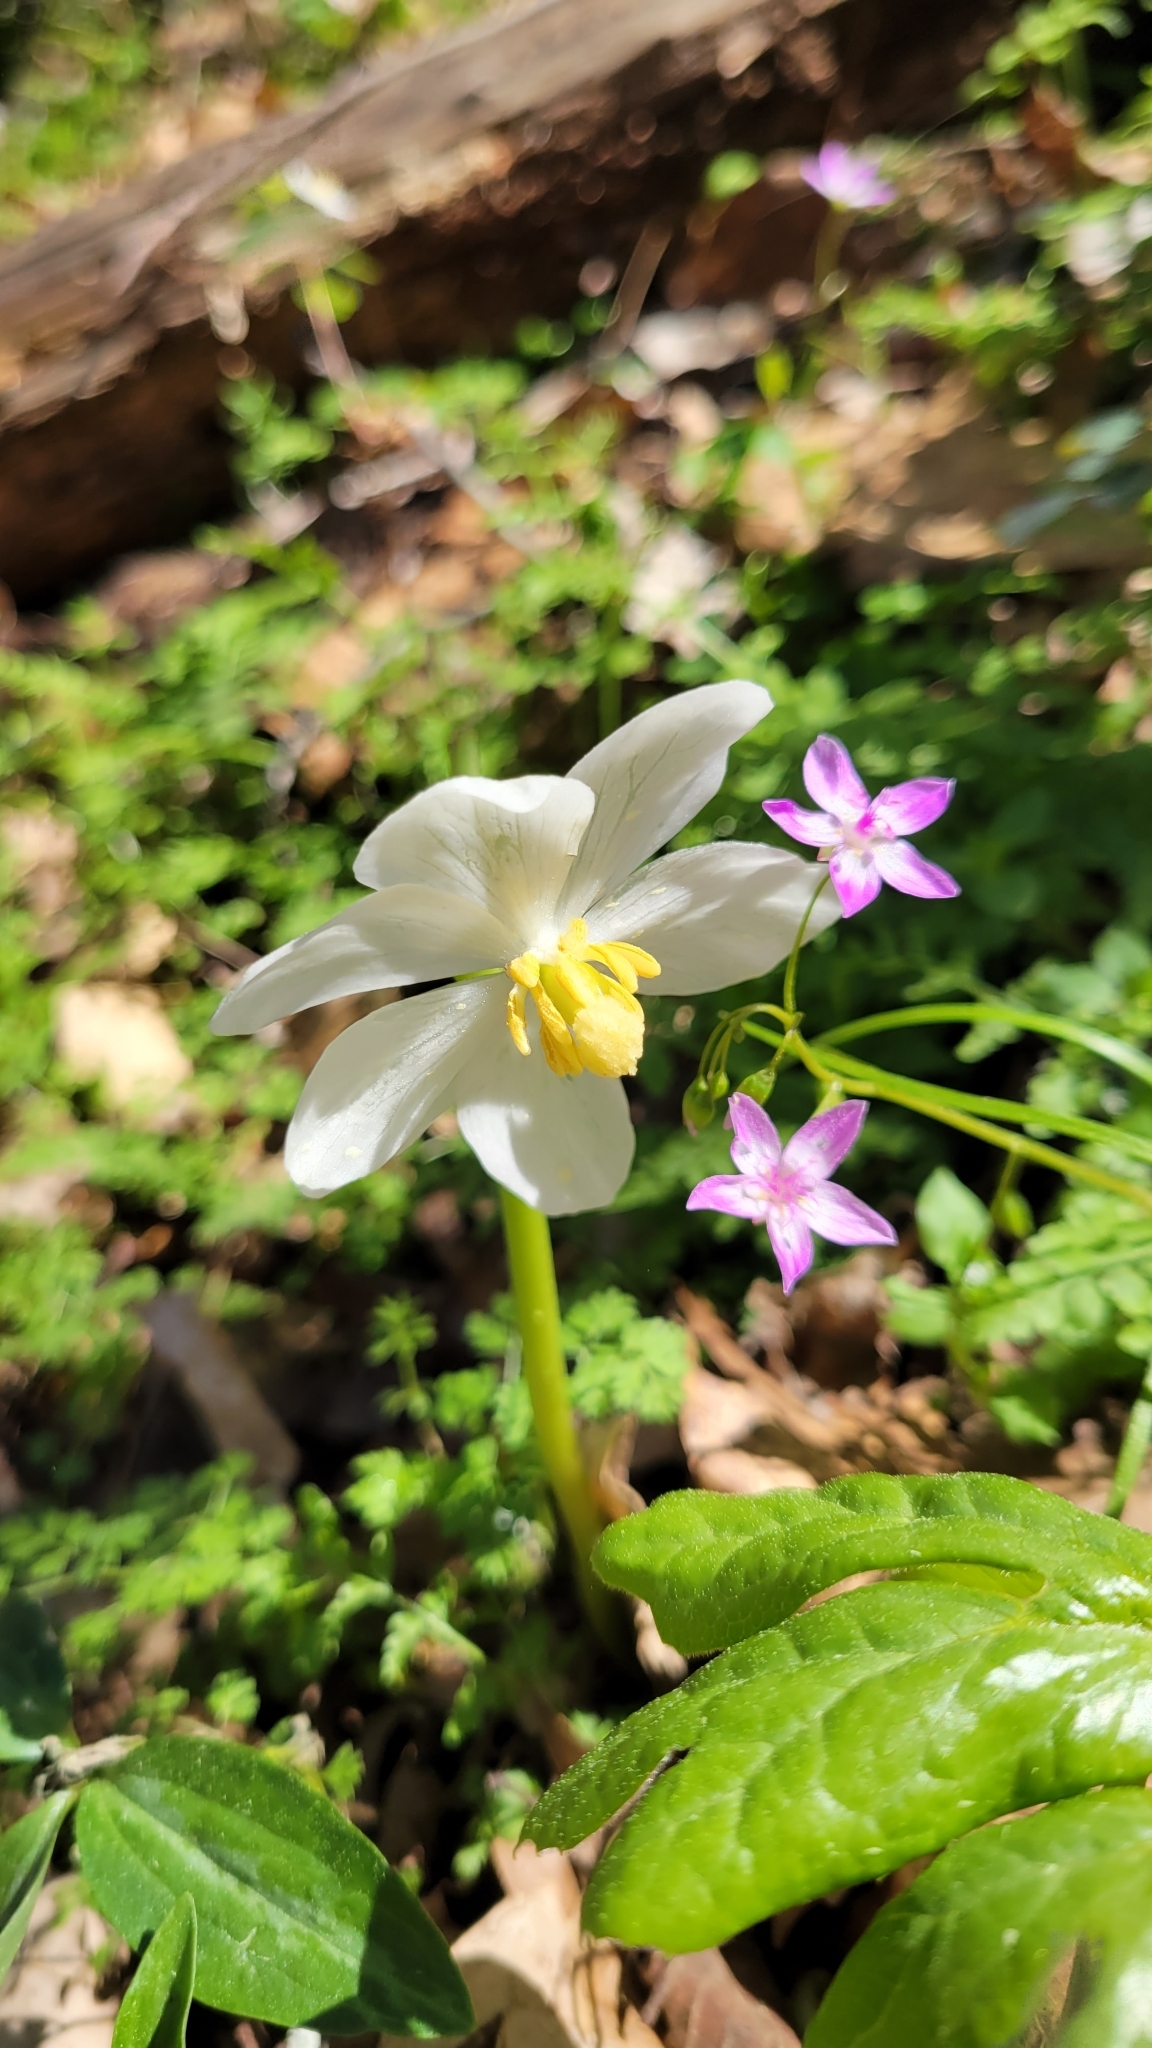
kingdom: Plantae
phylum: Tracheophyta
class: Magnoliopsida
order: Ranunculales
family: Berberidaceae
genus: Podophyllum
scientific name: Podophyllum peltatum
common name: Wild mandrake
